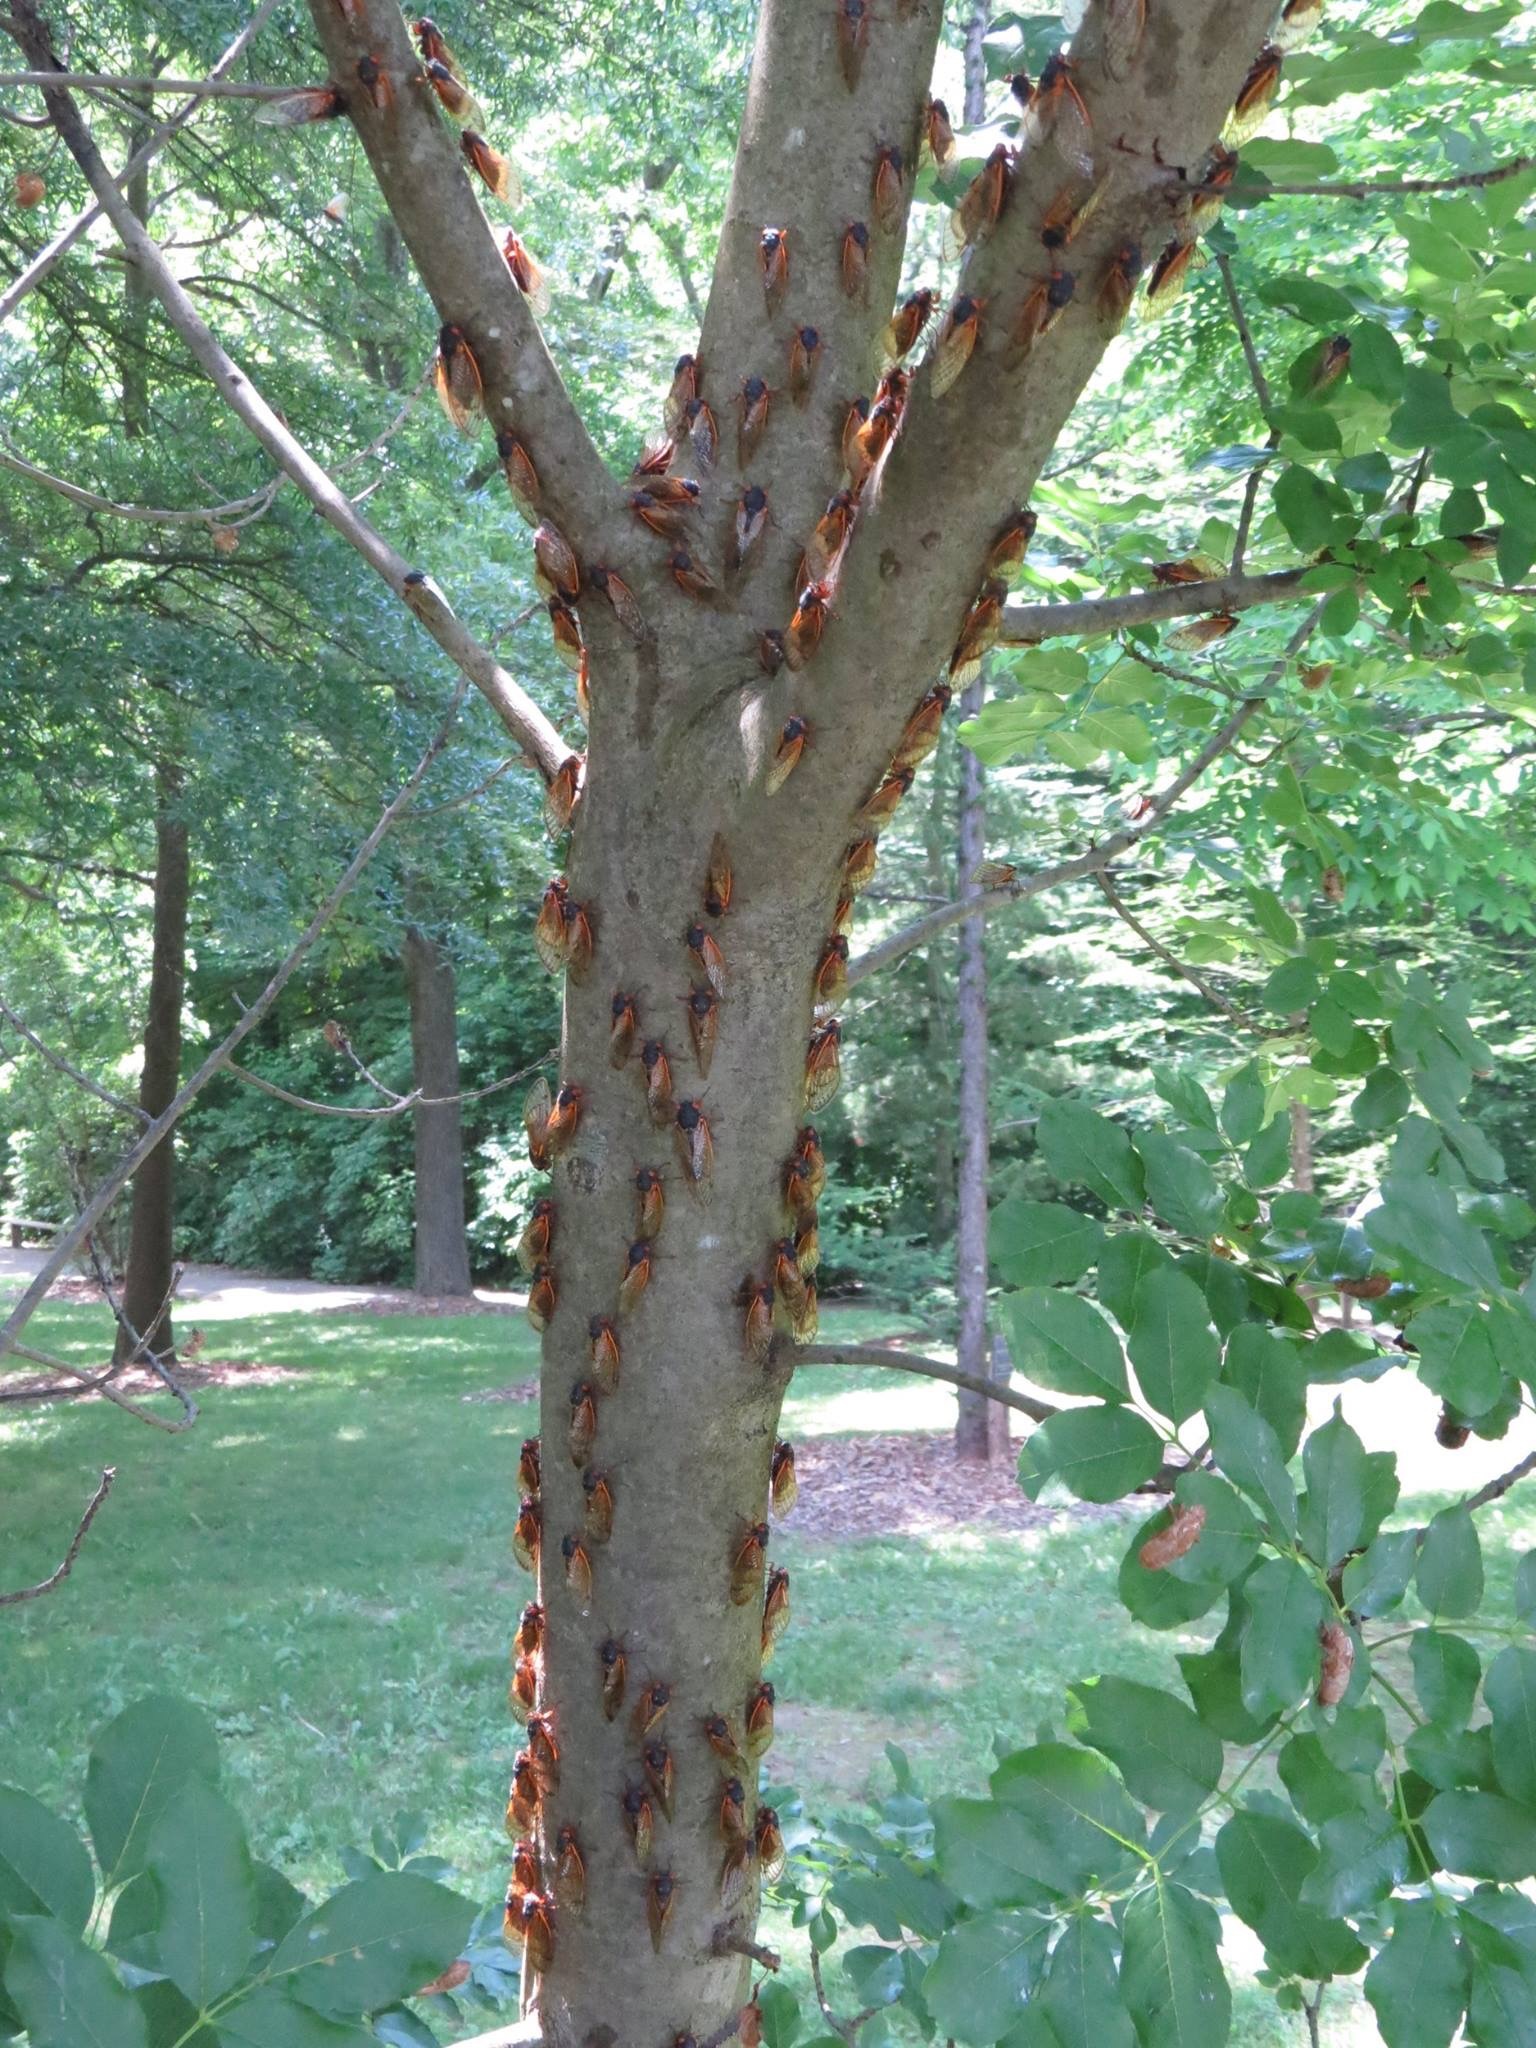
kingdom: Animalia
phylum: Arthropoda
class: Insecta
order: Hemiptera
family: Cicadidae
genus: Magicicada
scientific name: Magicicada
